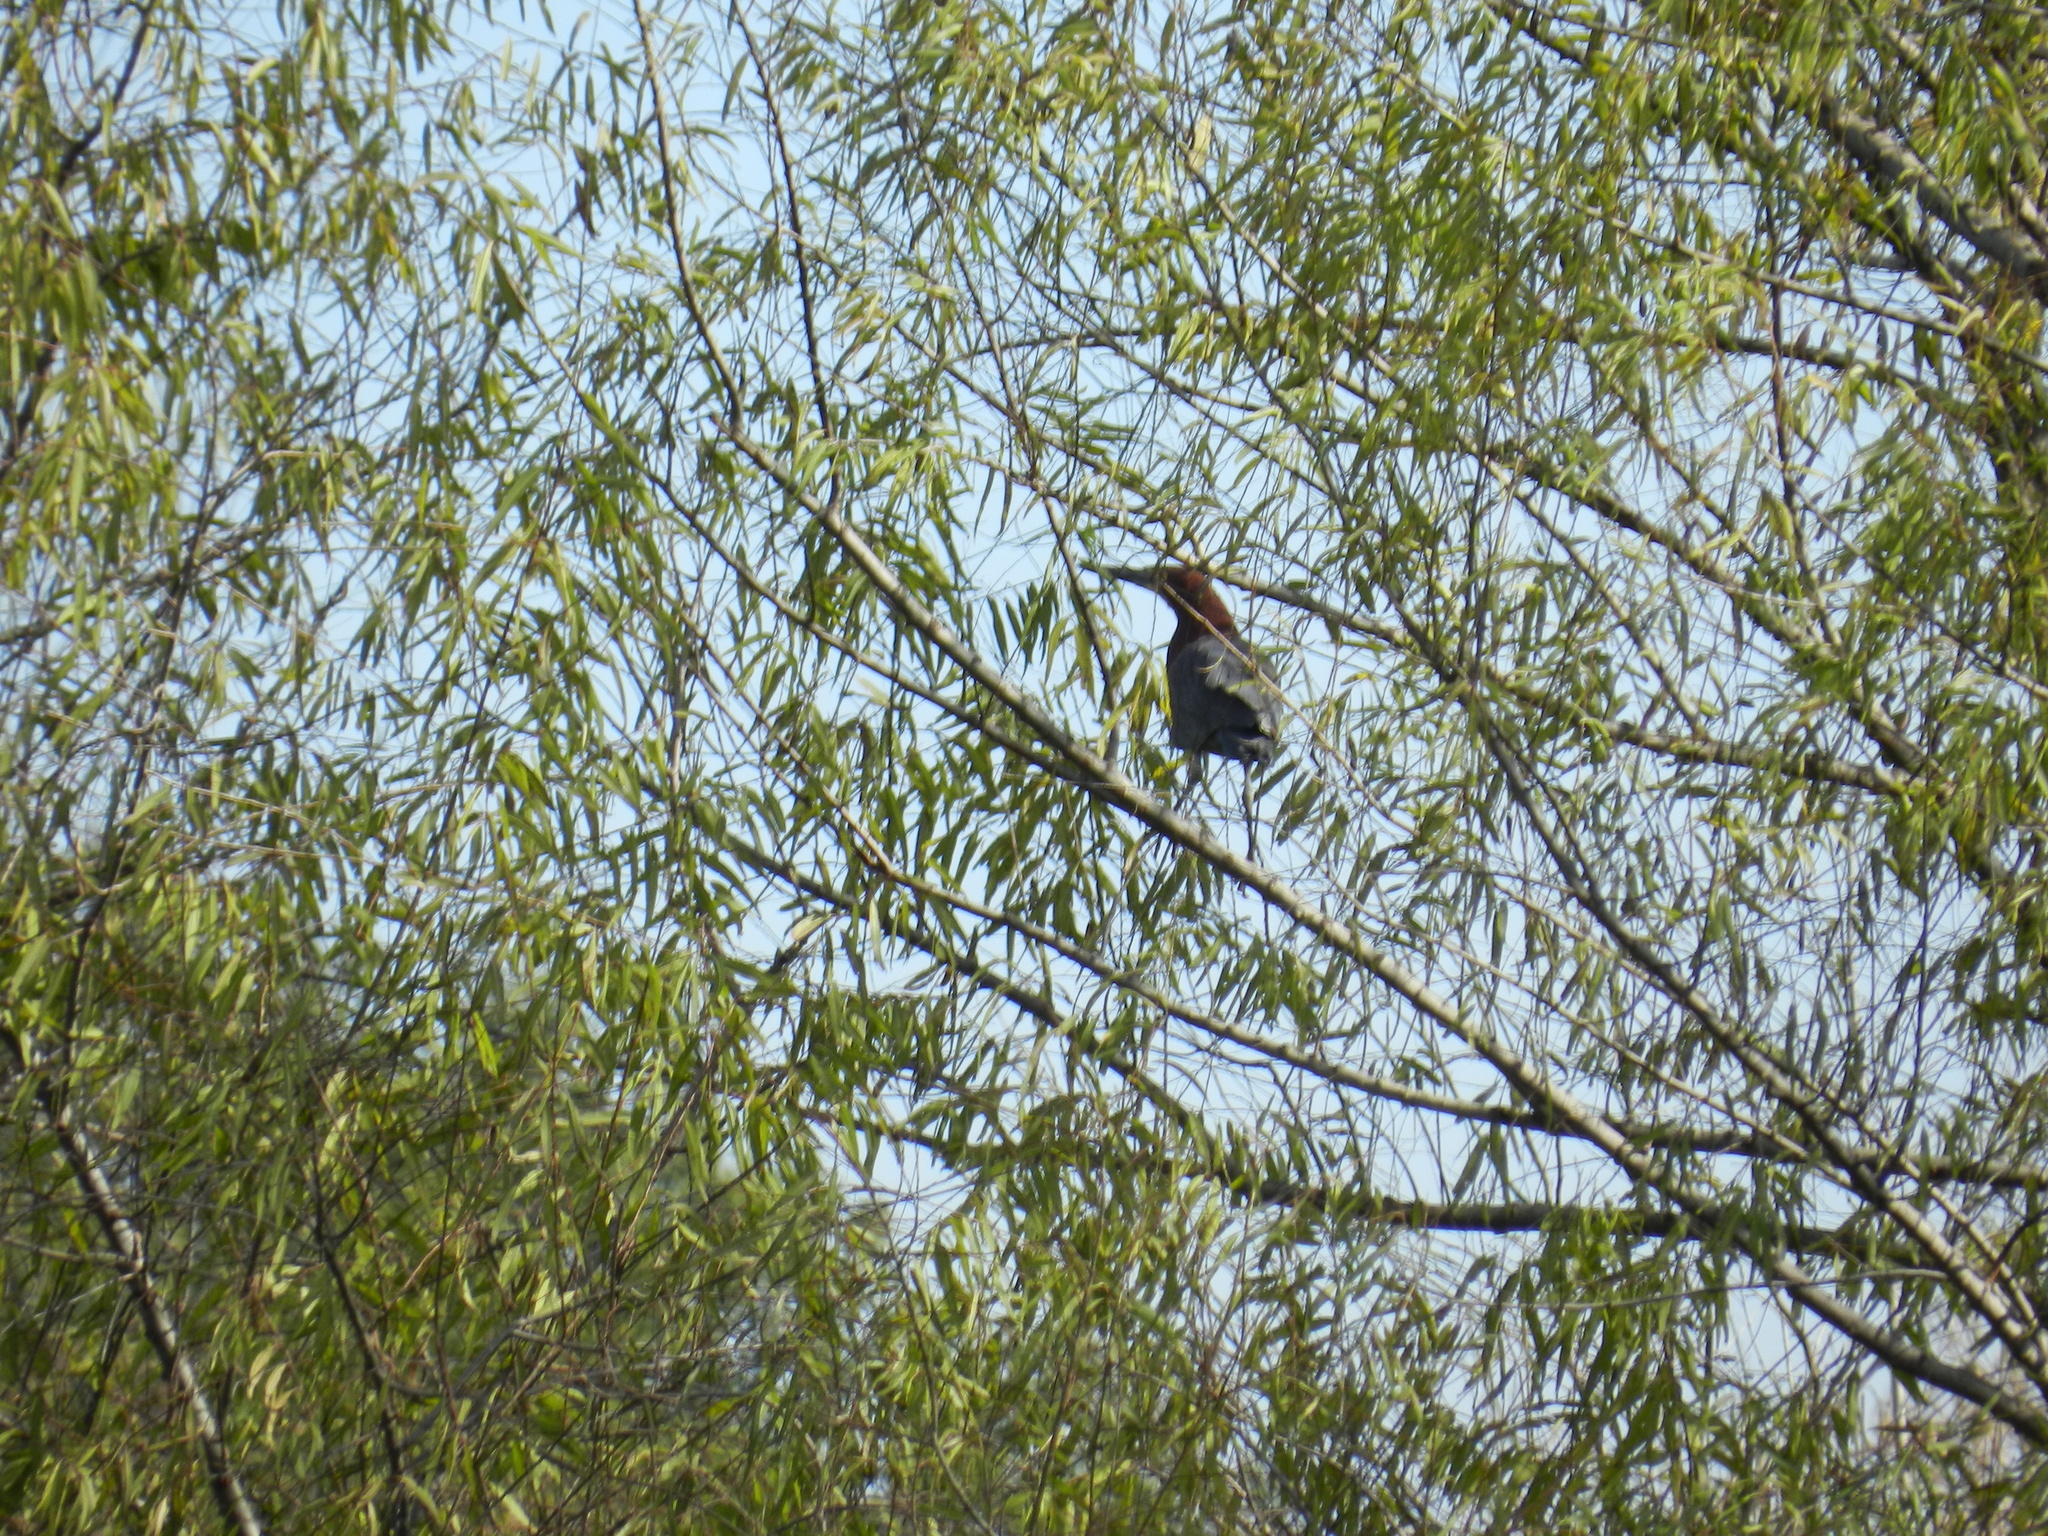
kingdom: Animalia
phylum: Chordata
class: Aves
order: Pelecaniformes
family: Ardeidae
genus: Tigrisoma
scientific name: Tigrisoma lineatum
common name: Rufescent tiger-heron
